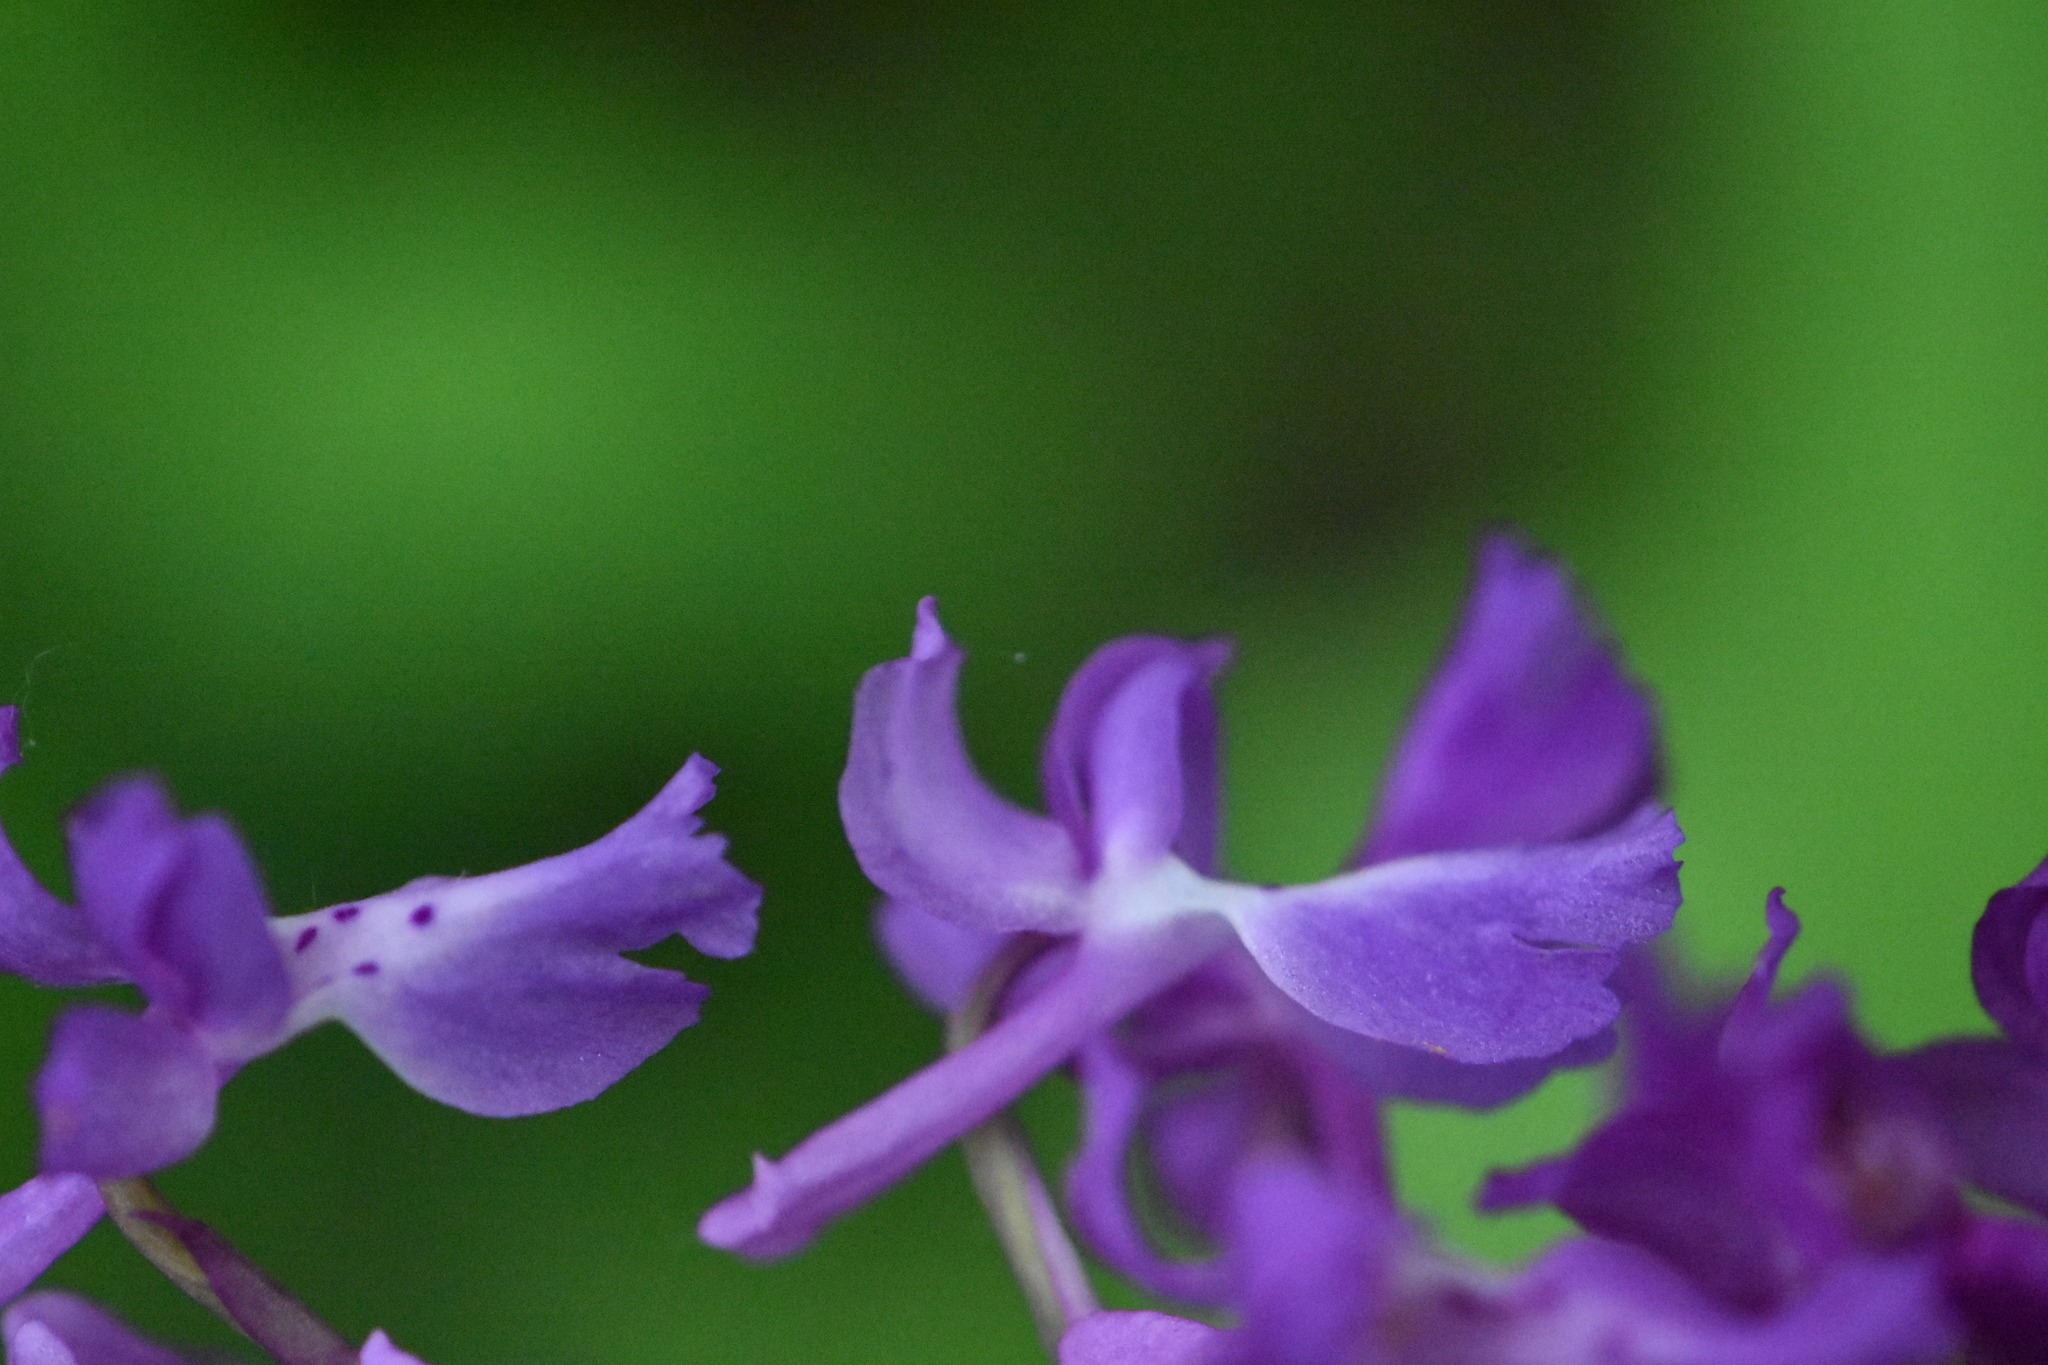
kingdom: Plantae
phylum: Tracheophyta
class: Liliopsida
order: Asparagales
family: Orchidaceae
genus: Orchis
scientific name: Orchis mascula
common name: Early-purple orchid
